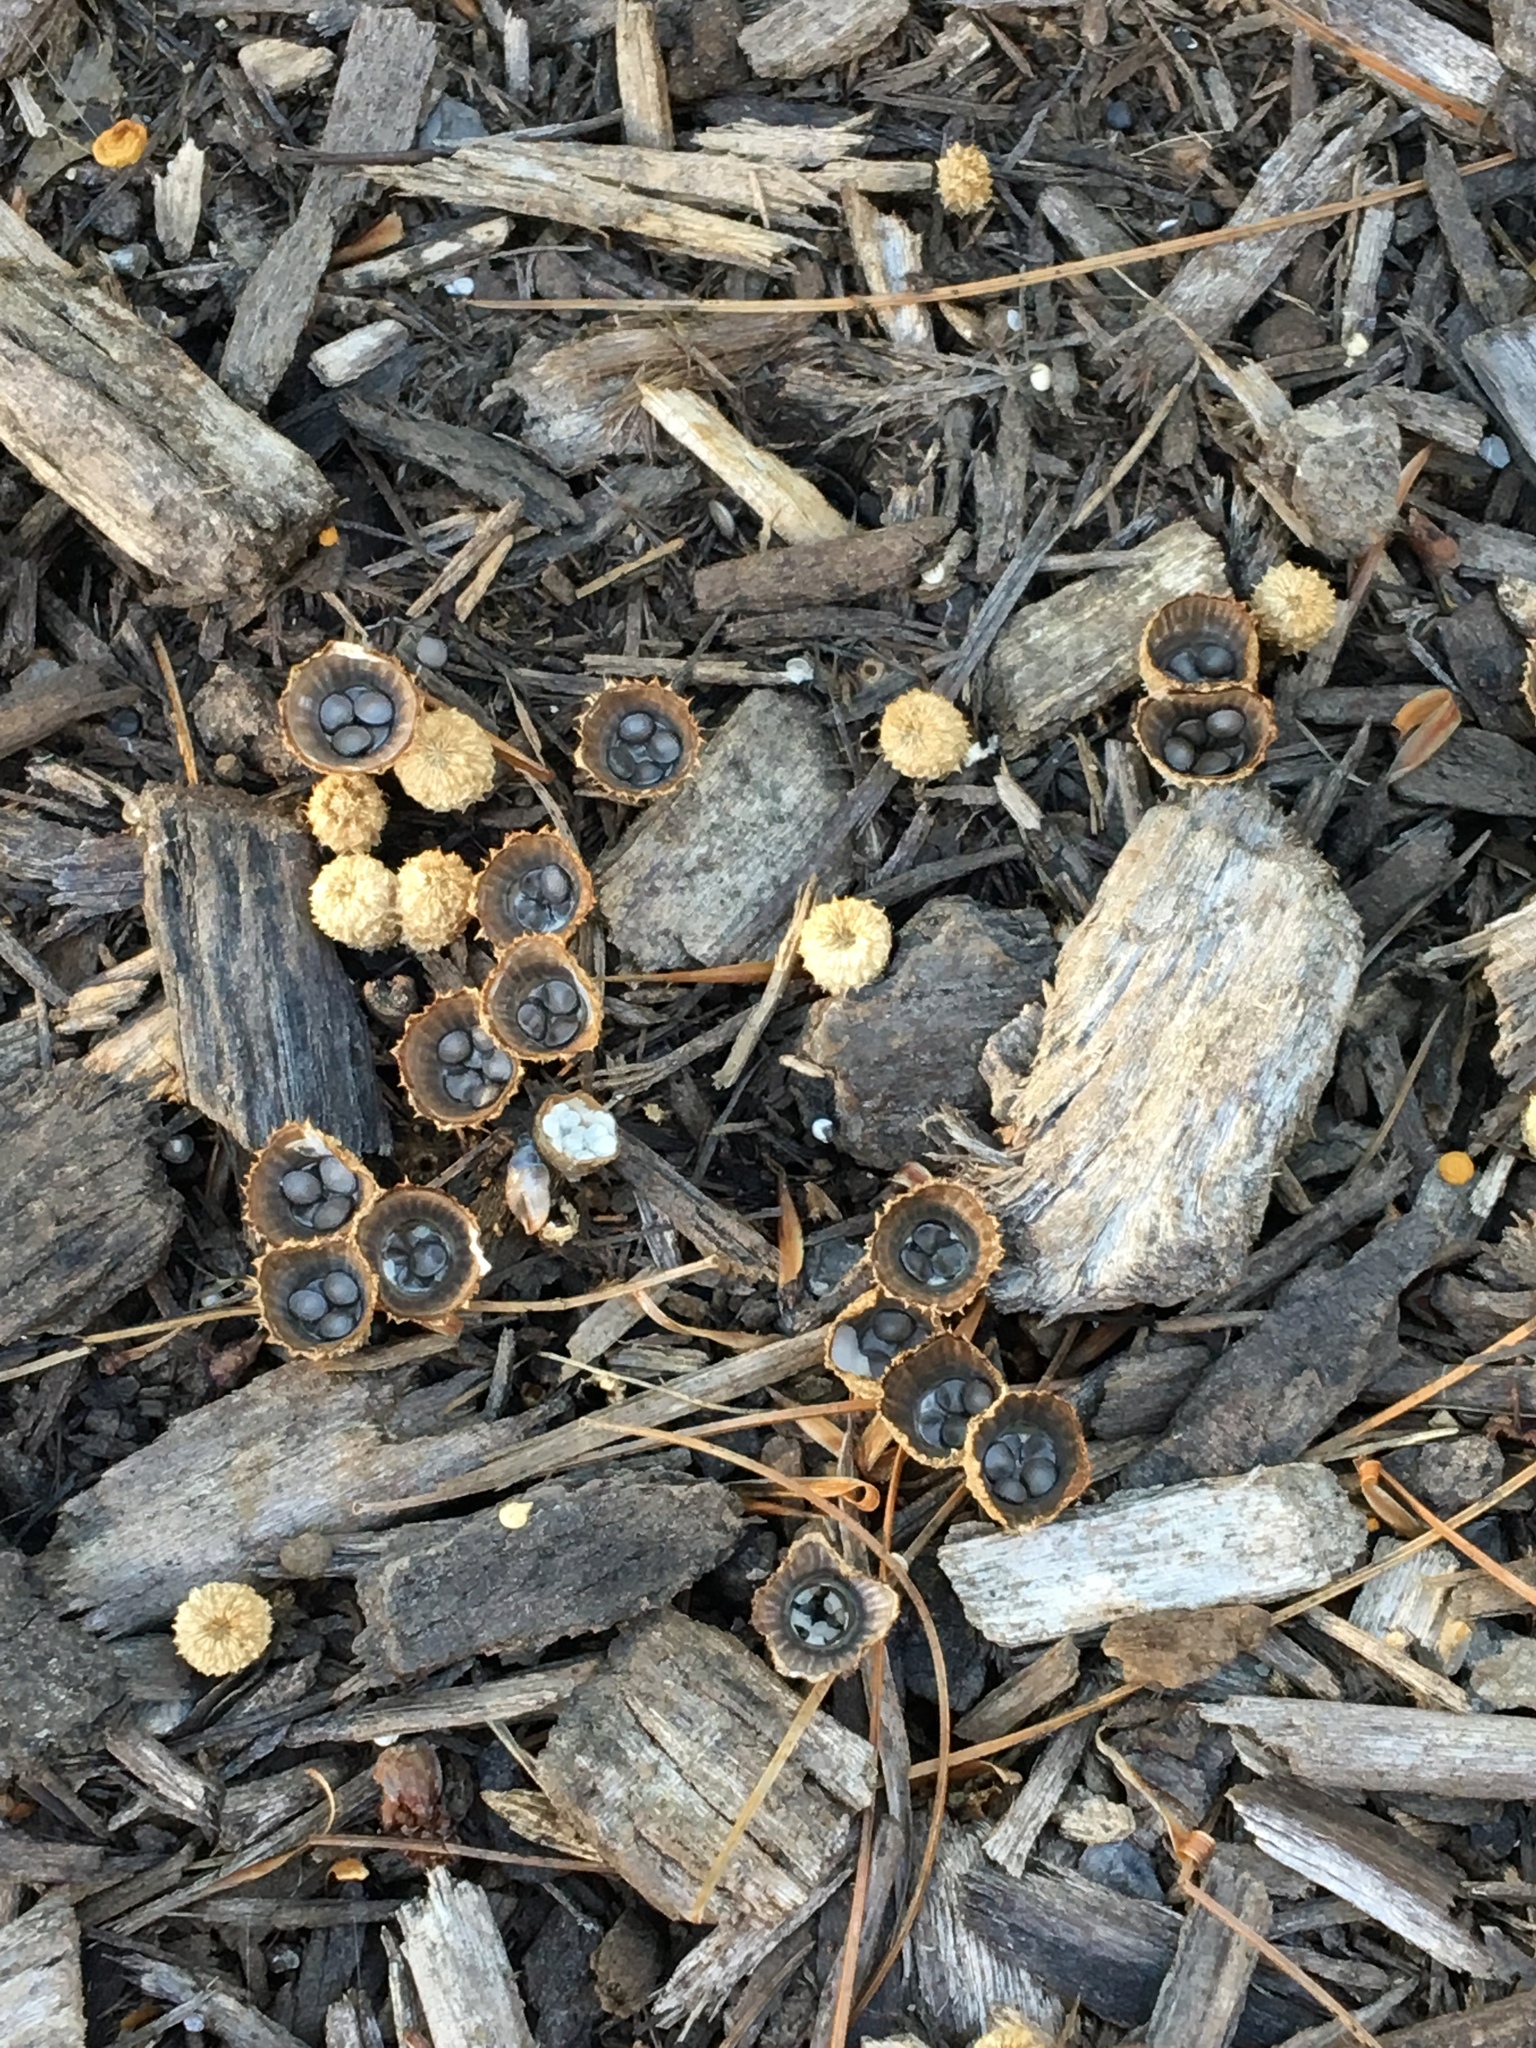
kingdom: Fungi
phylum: Basidiomycota
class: Agaricomycetes
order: Agaricales
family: Agaricaceae
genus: Cyathus
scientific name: Cyathus striatus
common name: Fluted bird's nest
